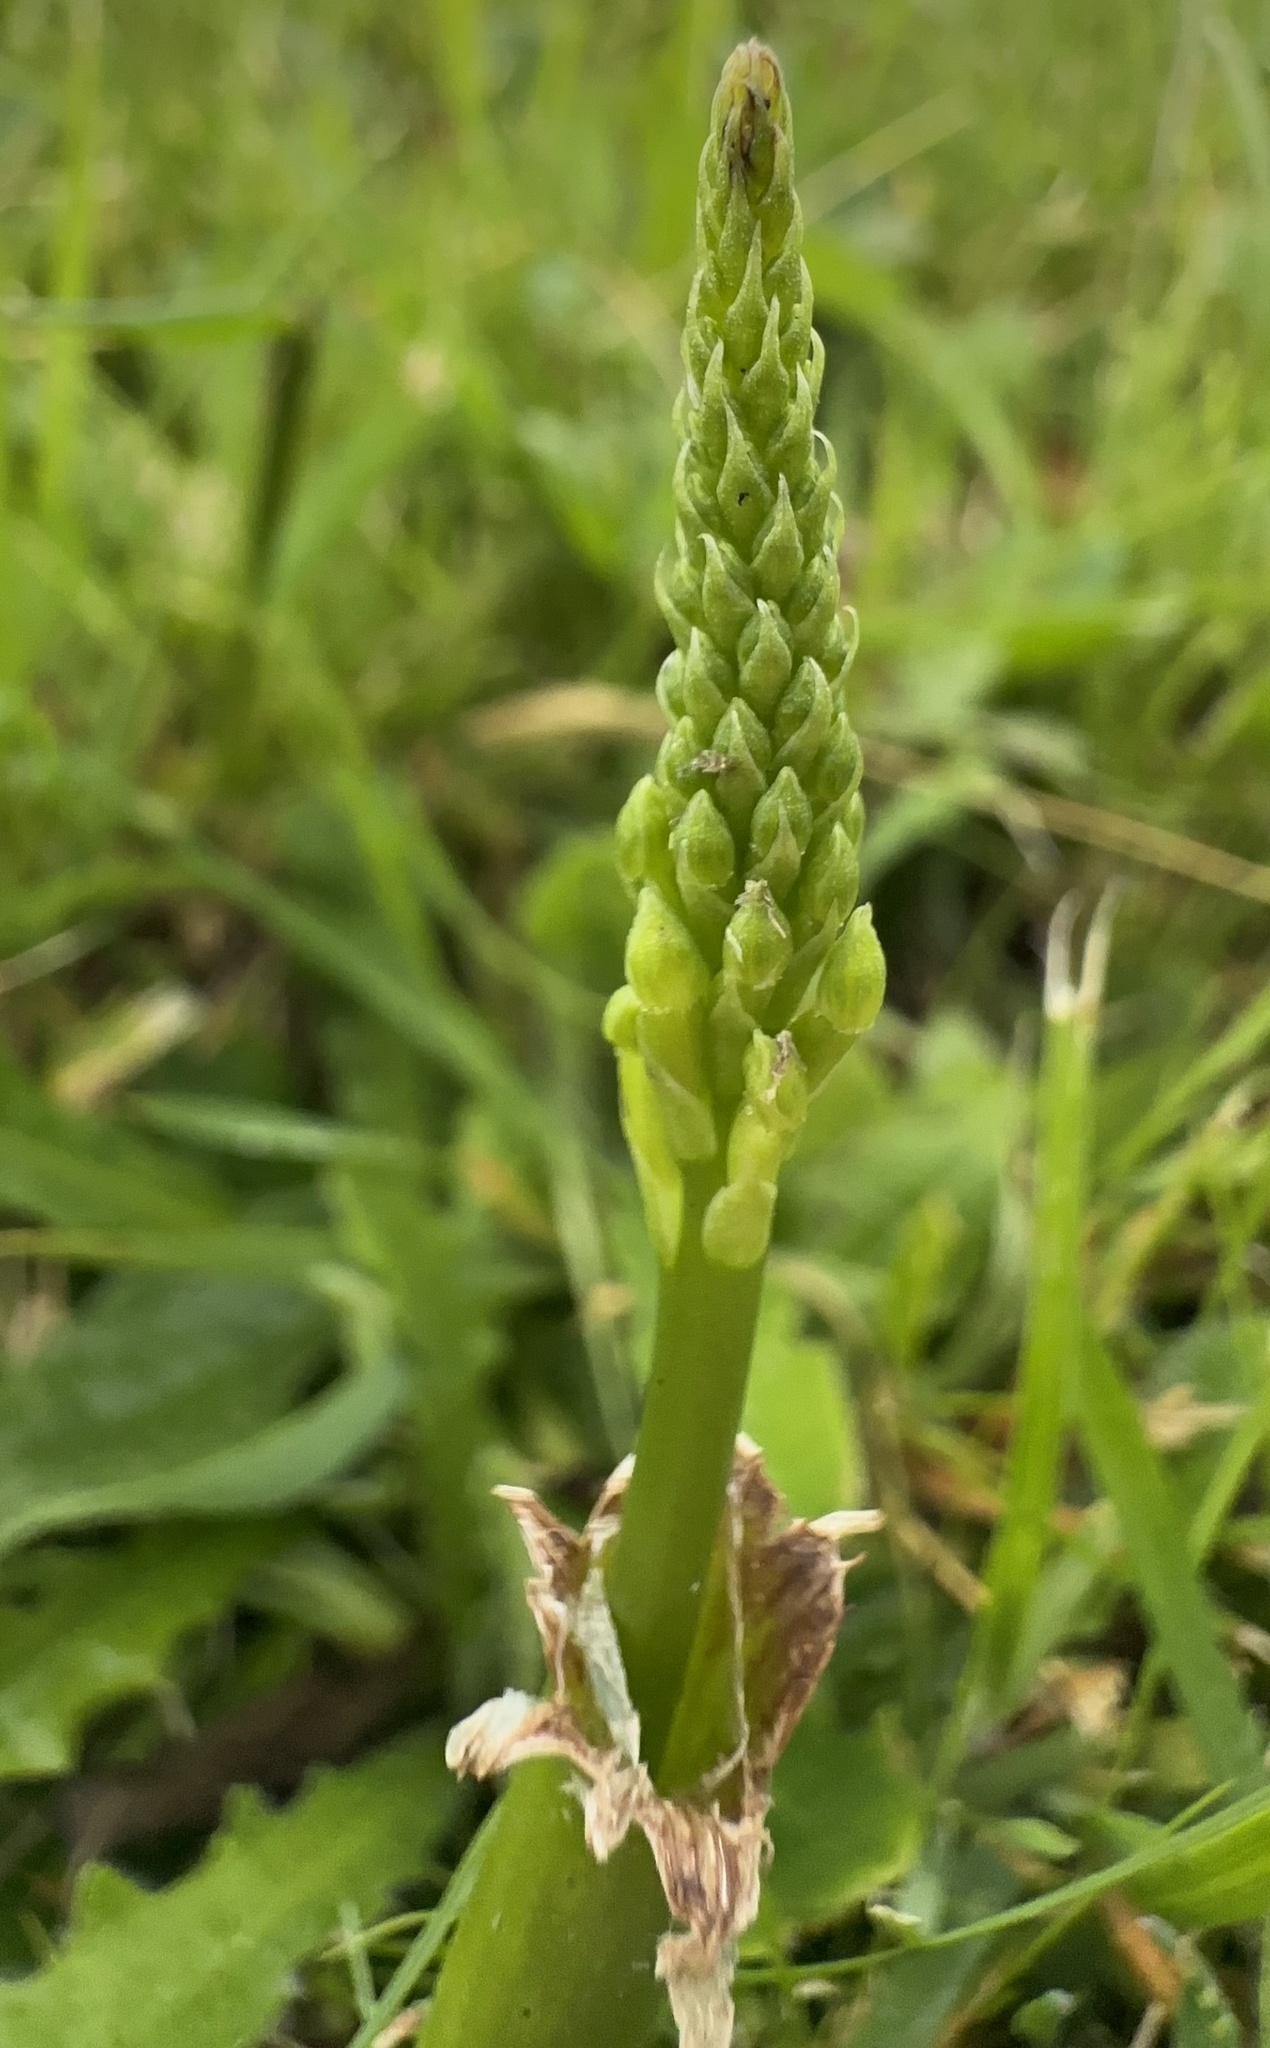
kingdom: Plantae
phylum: Tracheophyta
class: Liliopsida
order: Asparagales
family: Orchidaceae
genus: Microtis
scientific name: Microtis unifolia
